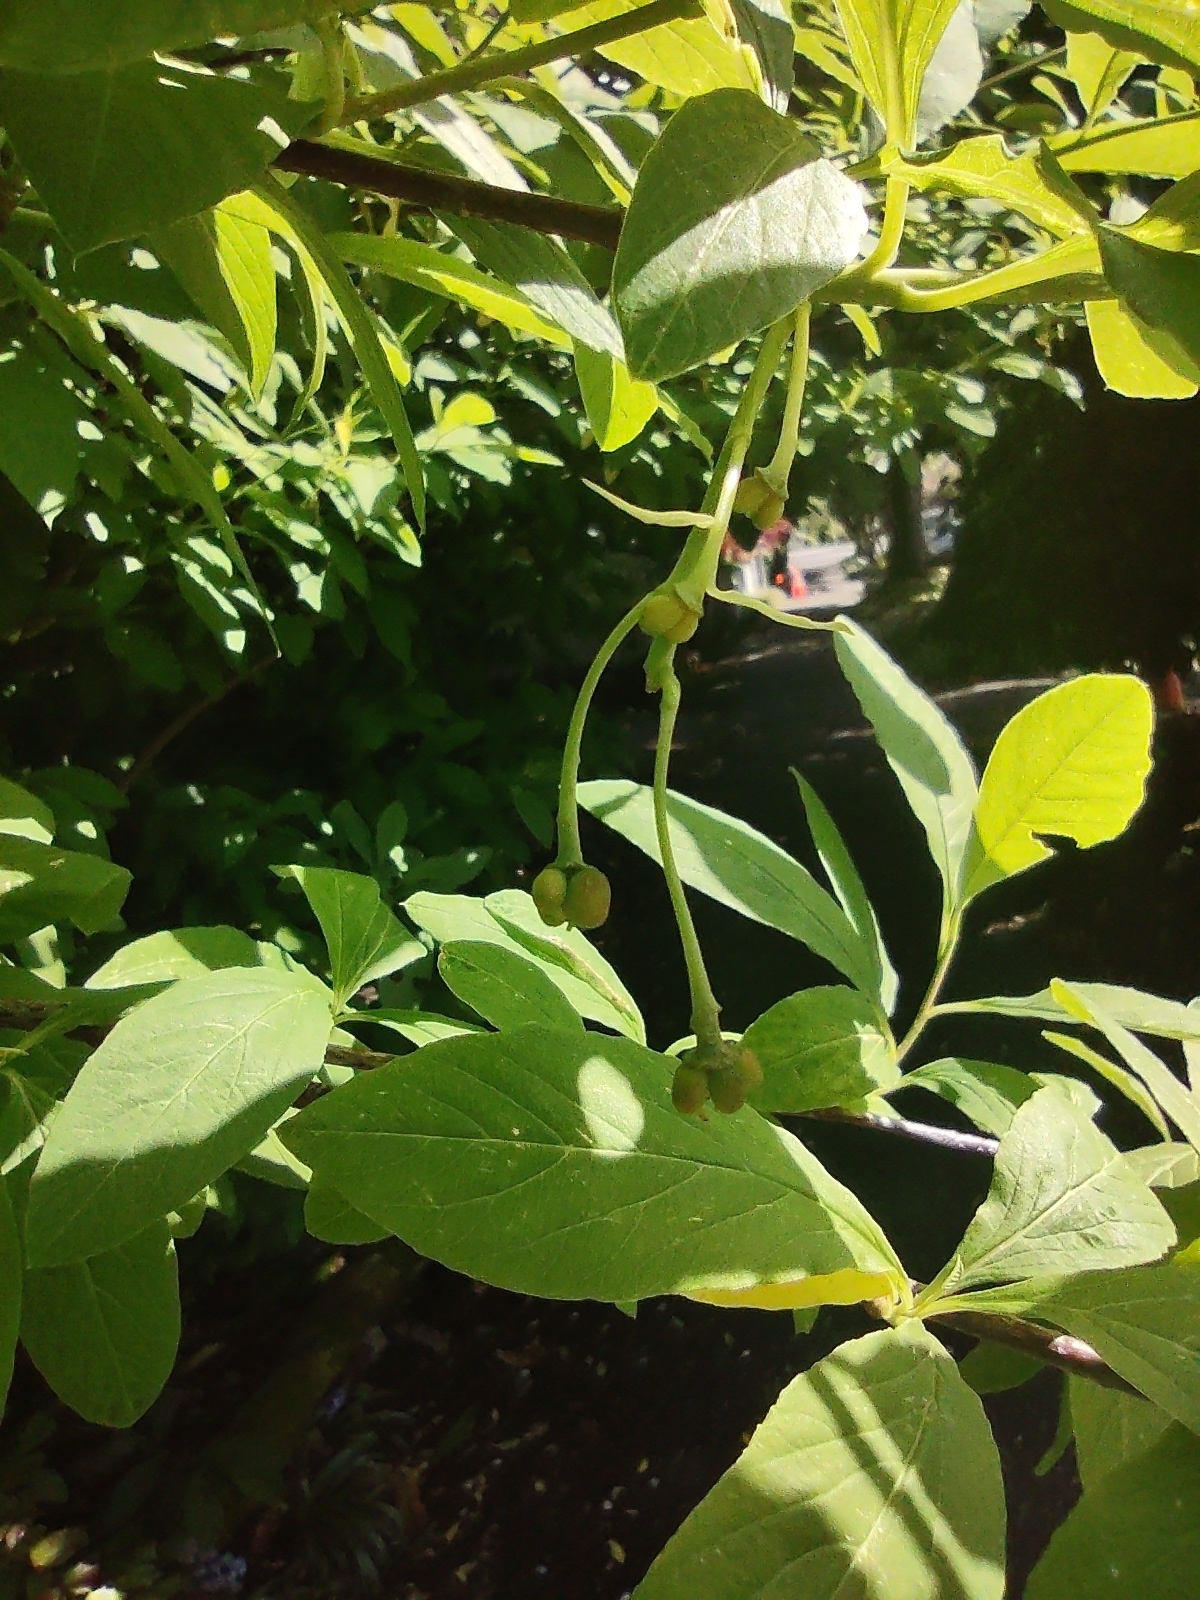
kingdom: Plantae
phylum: Tracheophyta
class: Magnoliopsida
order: Rosales
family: Rosaceae
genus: Oemleria
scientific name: Oemleria cerasiformis
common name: Osoberry
